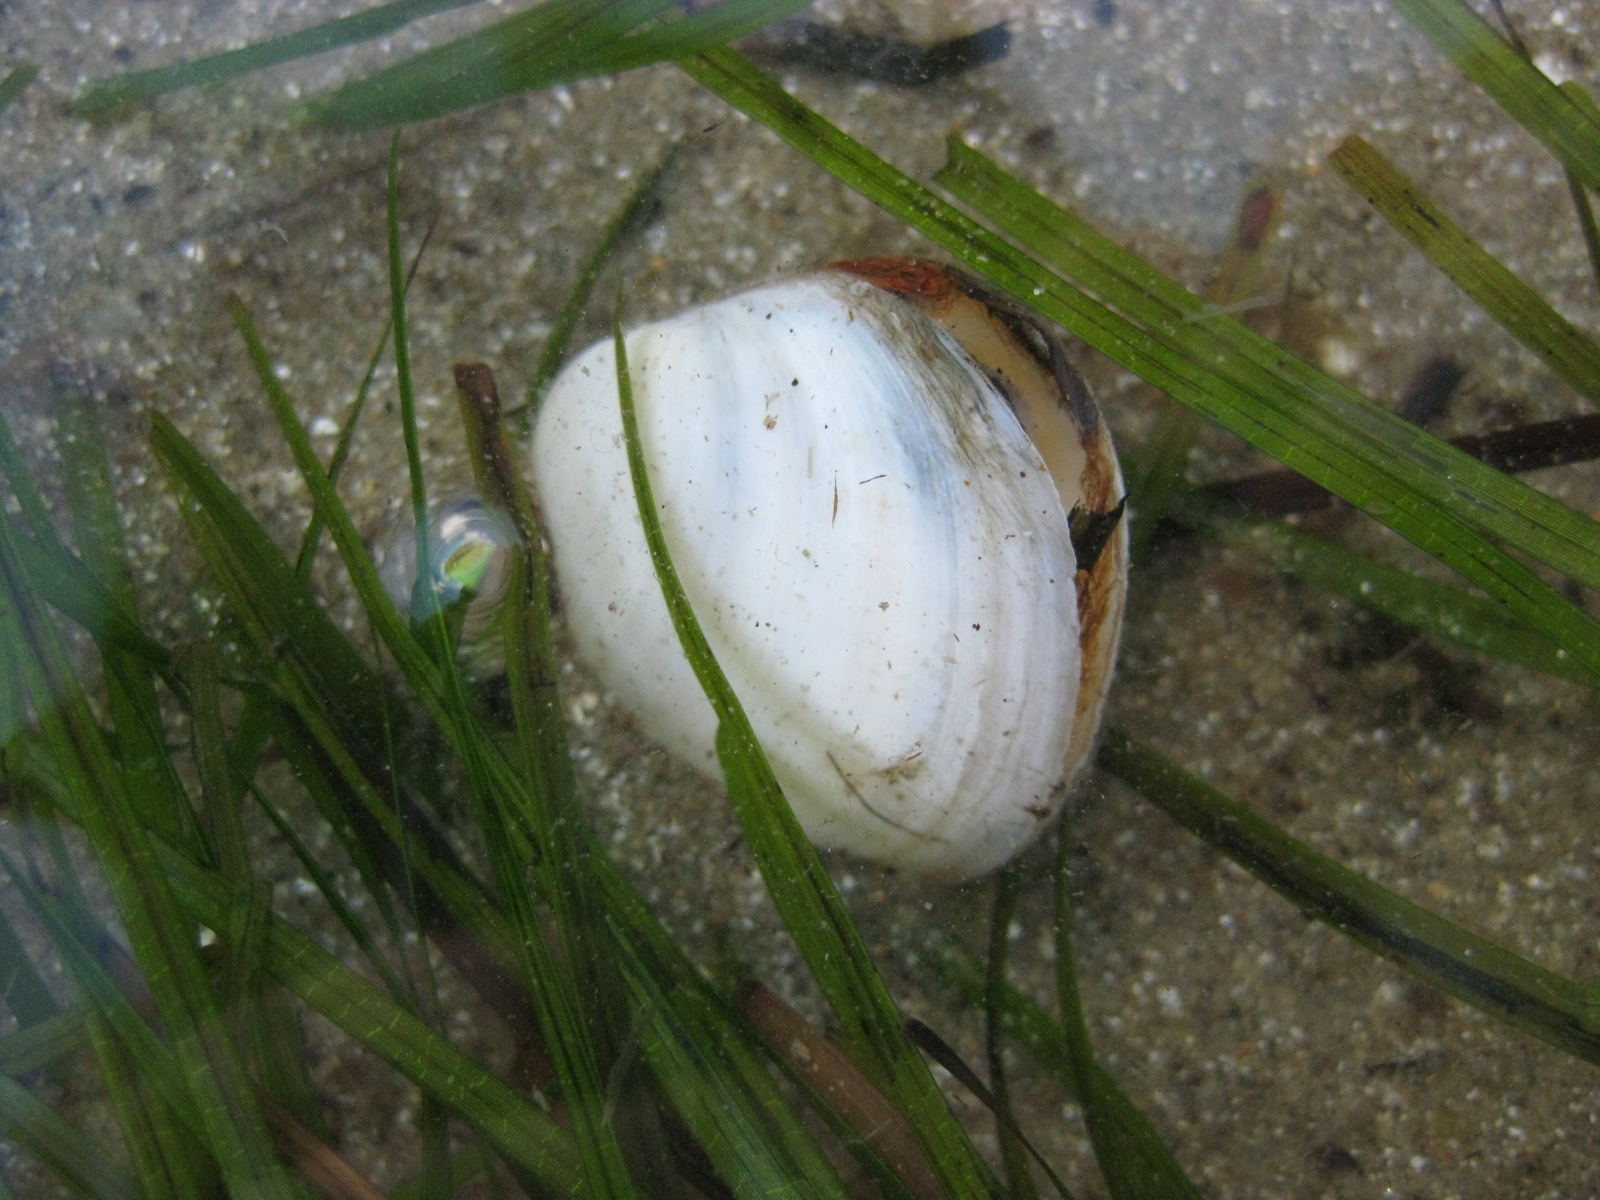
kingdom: Animalia
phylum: Mollusca
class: Bivalvia
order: Venerida
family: Mactridae
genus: Cyclomactra
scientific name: Cyclomactra ovata
